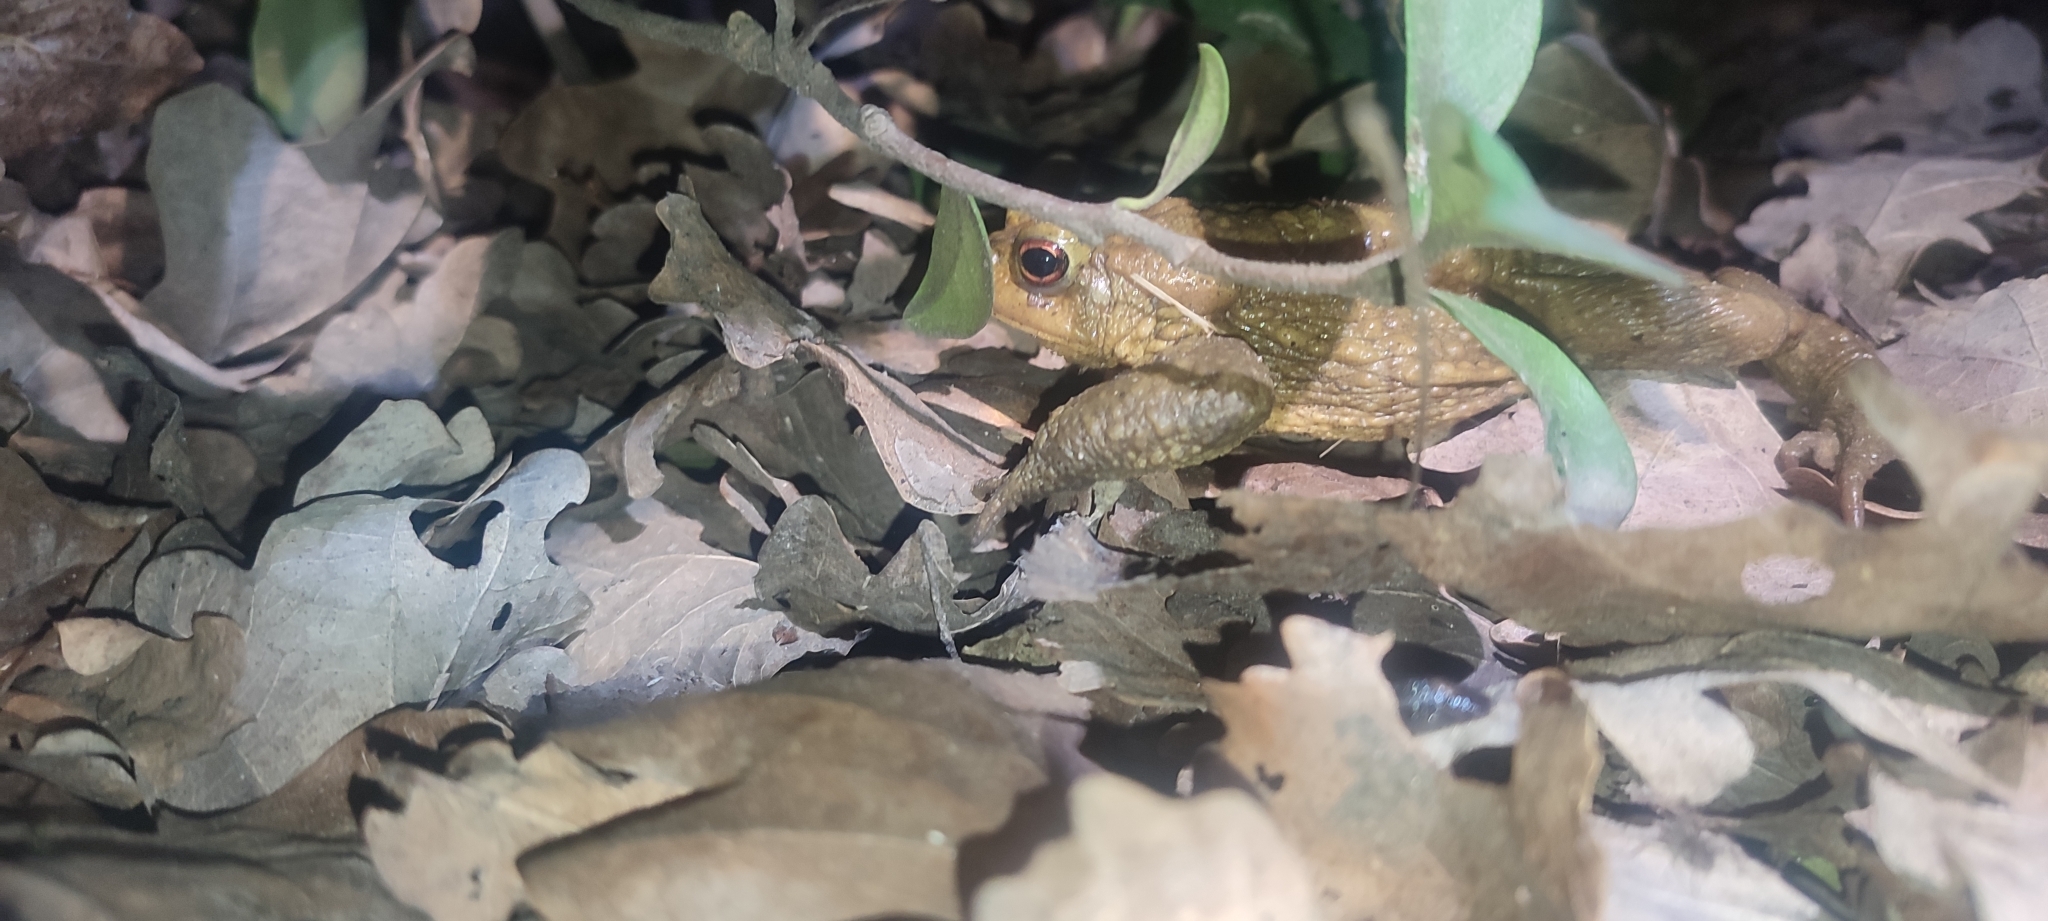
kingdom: Animalia
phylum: Chordata
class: Amphibia
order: Anura
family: Bufonidae
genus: Bufo
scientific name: Bufo spinosus
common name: Western common toad
